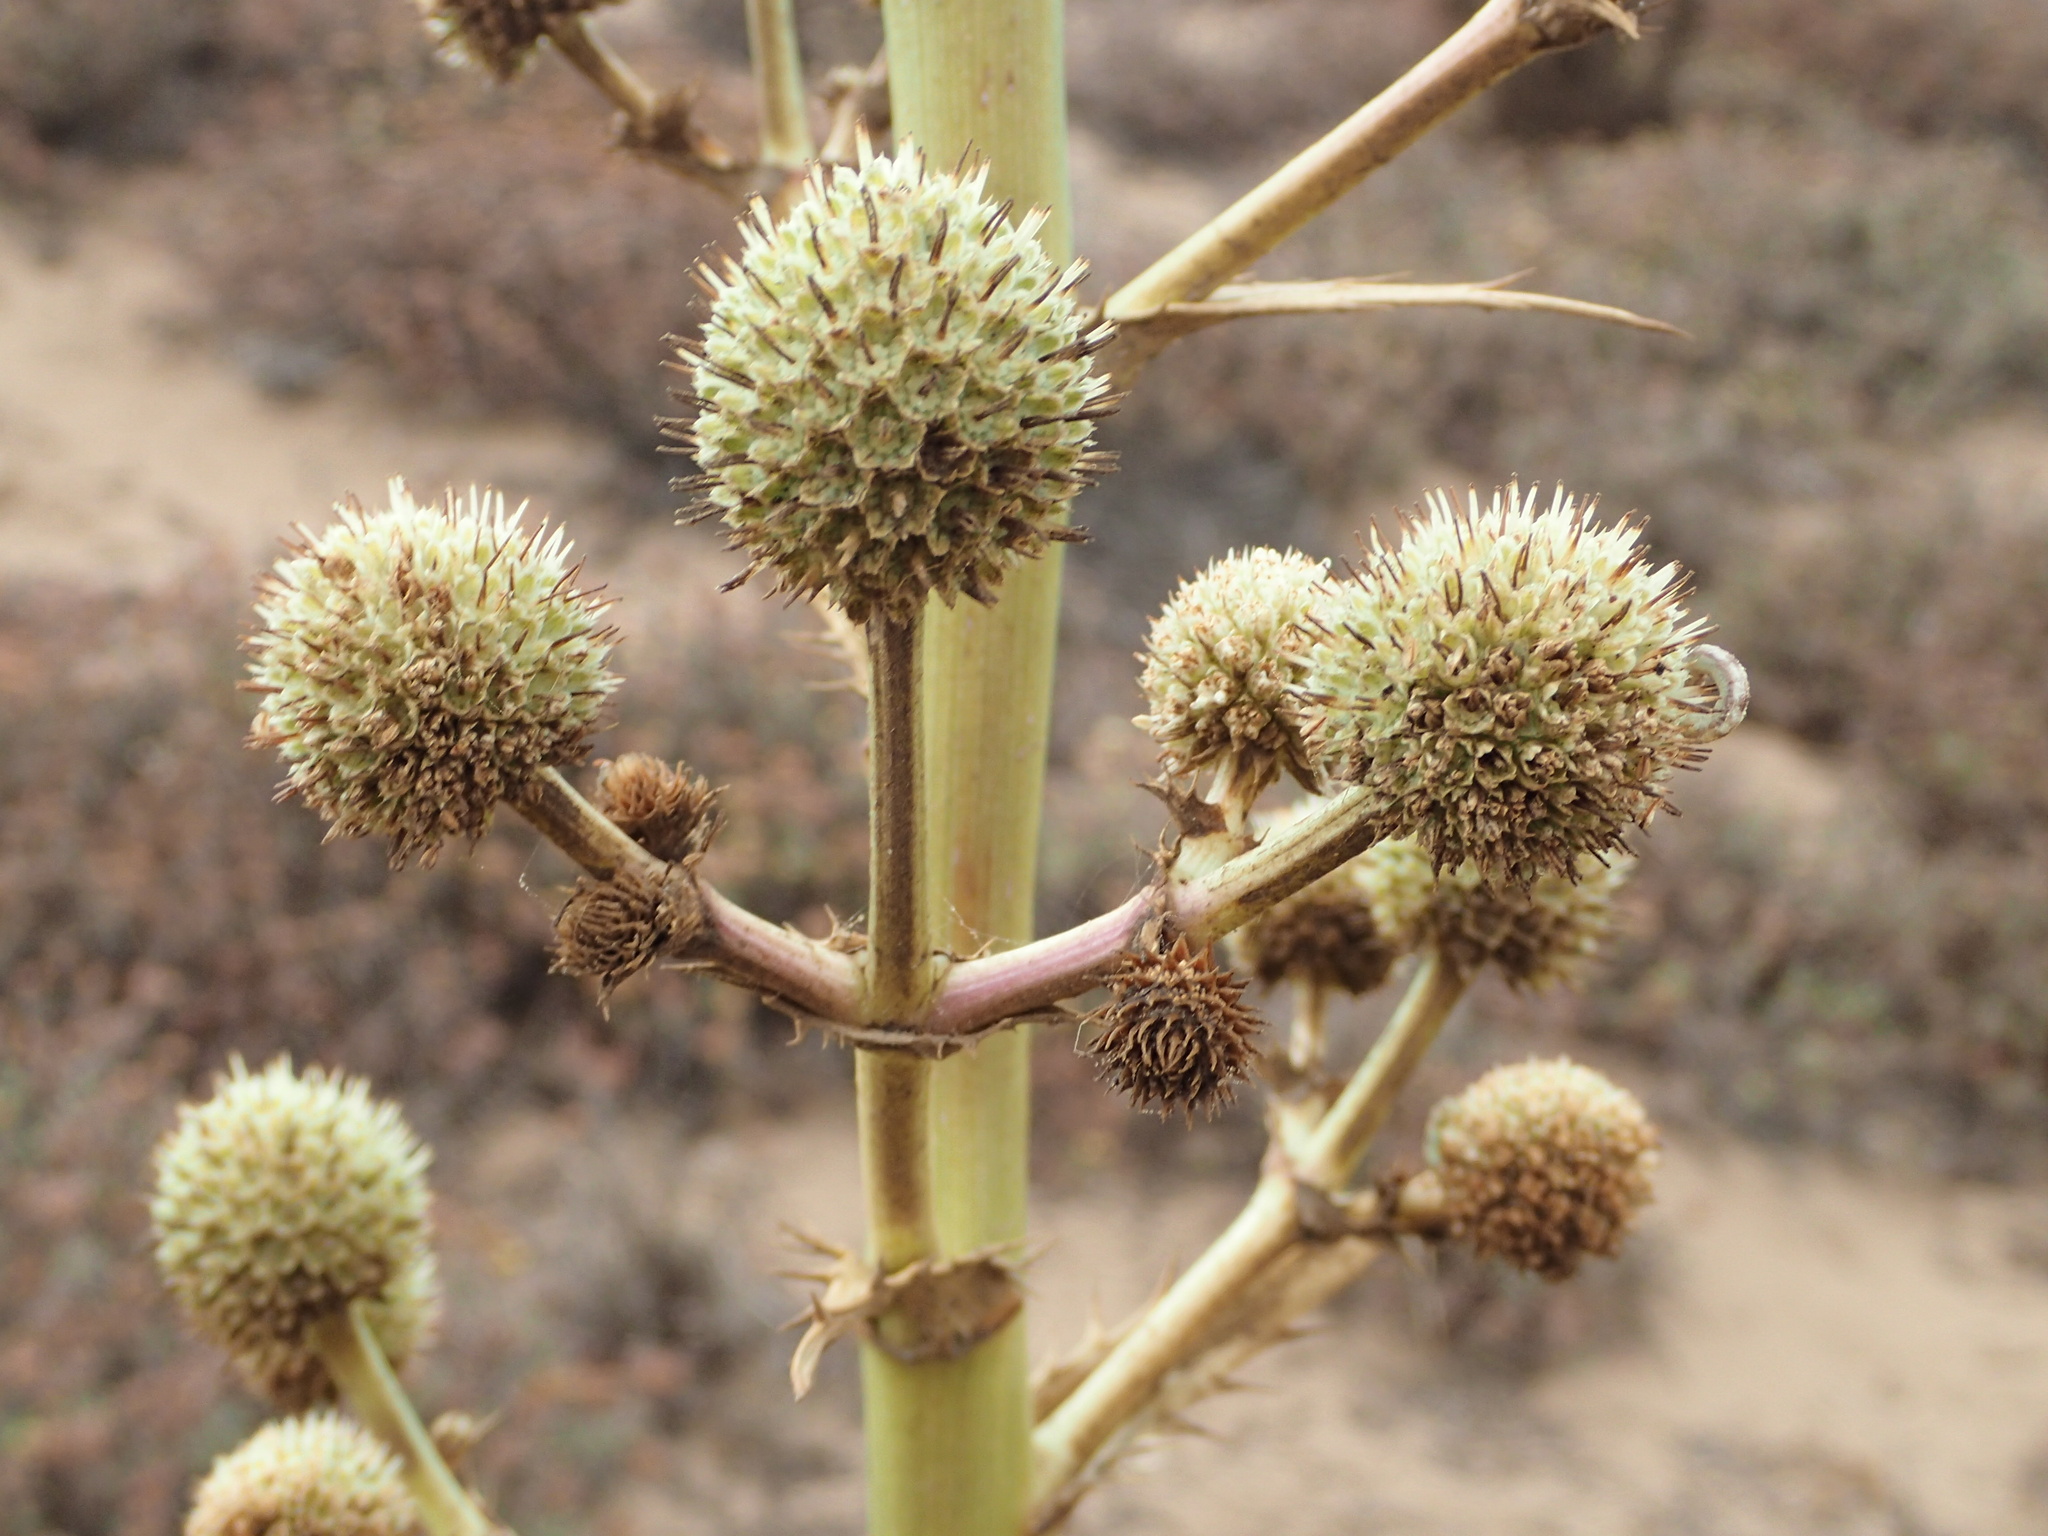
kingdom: Plantae
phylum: Tracheophyta
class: Magnoliopsida
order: Apiales
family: Apiaceae
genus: Eryngium
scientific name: Eryngium humboldtii
